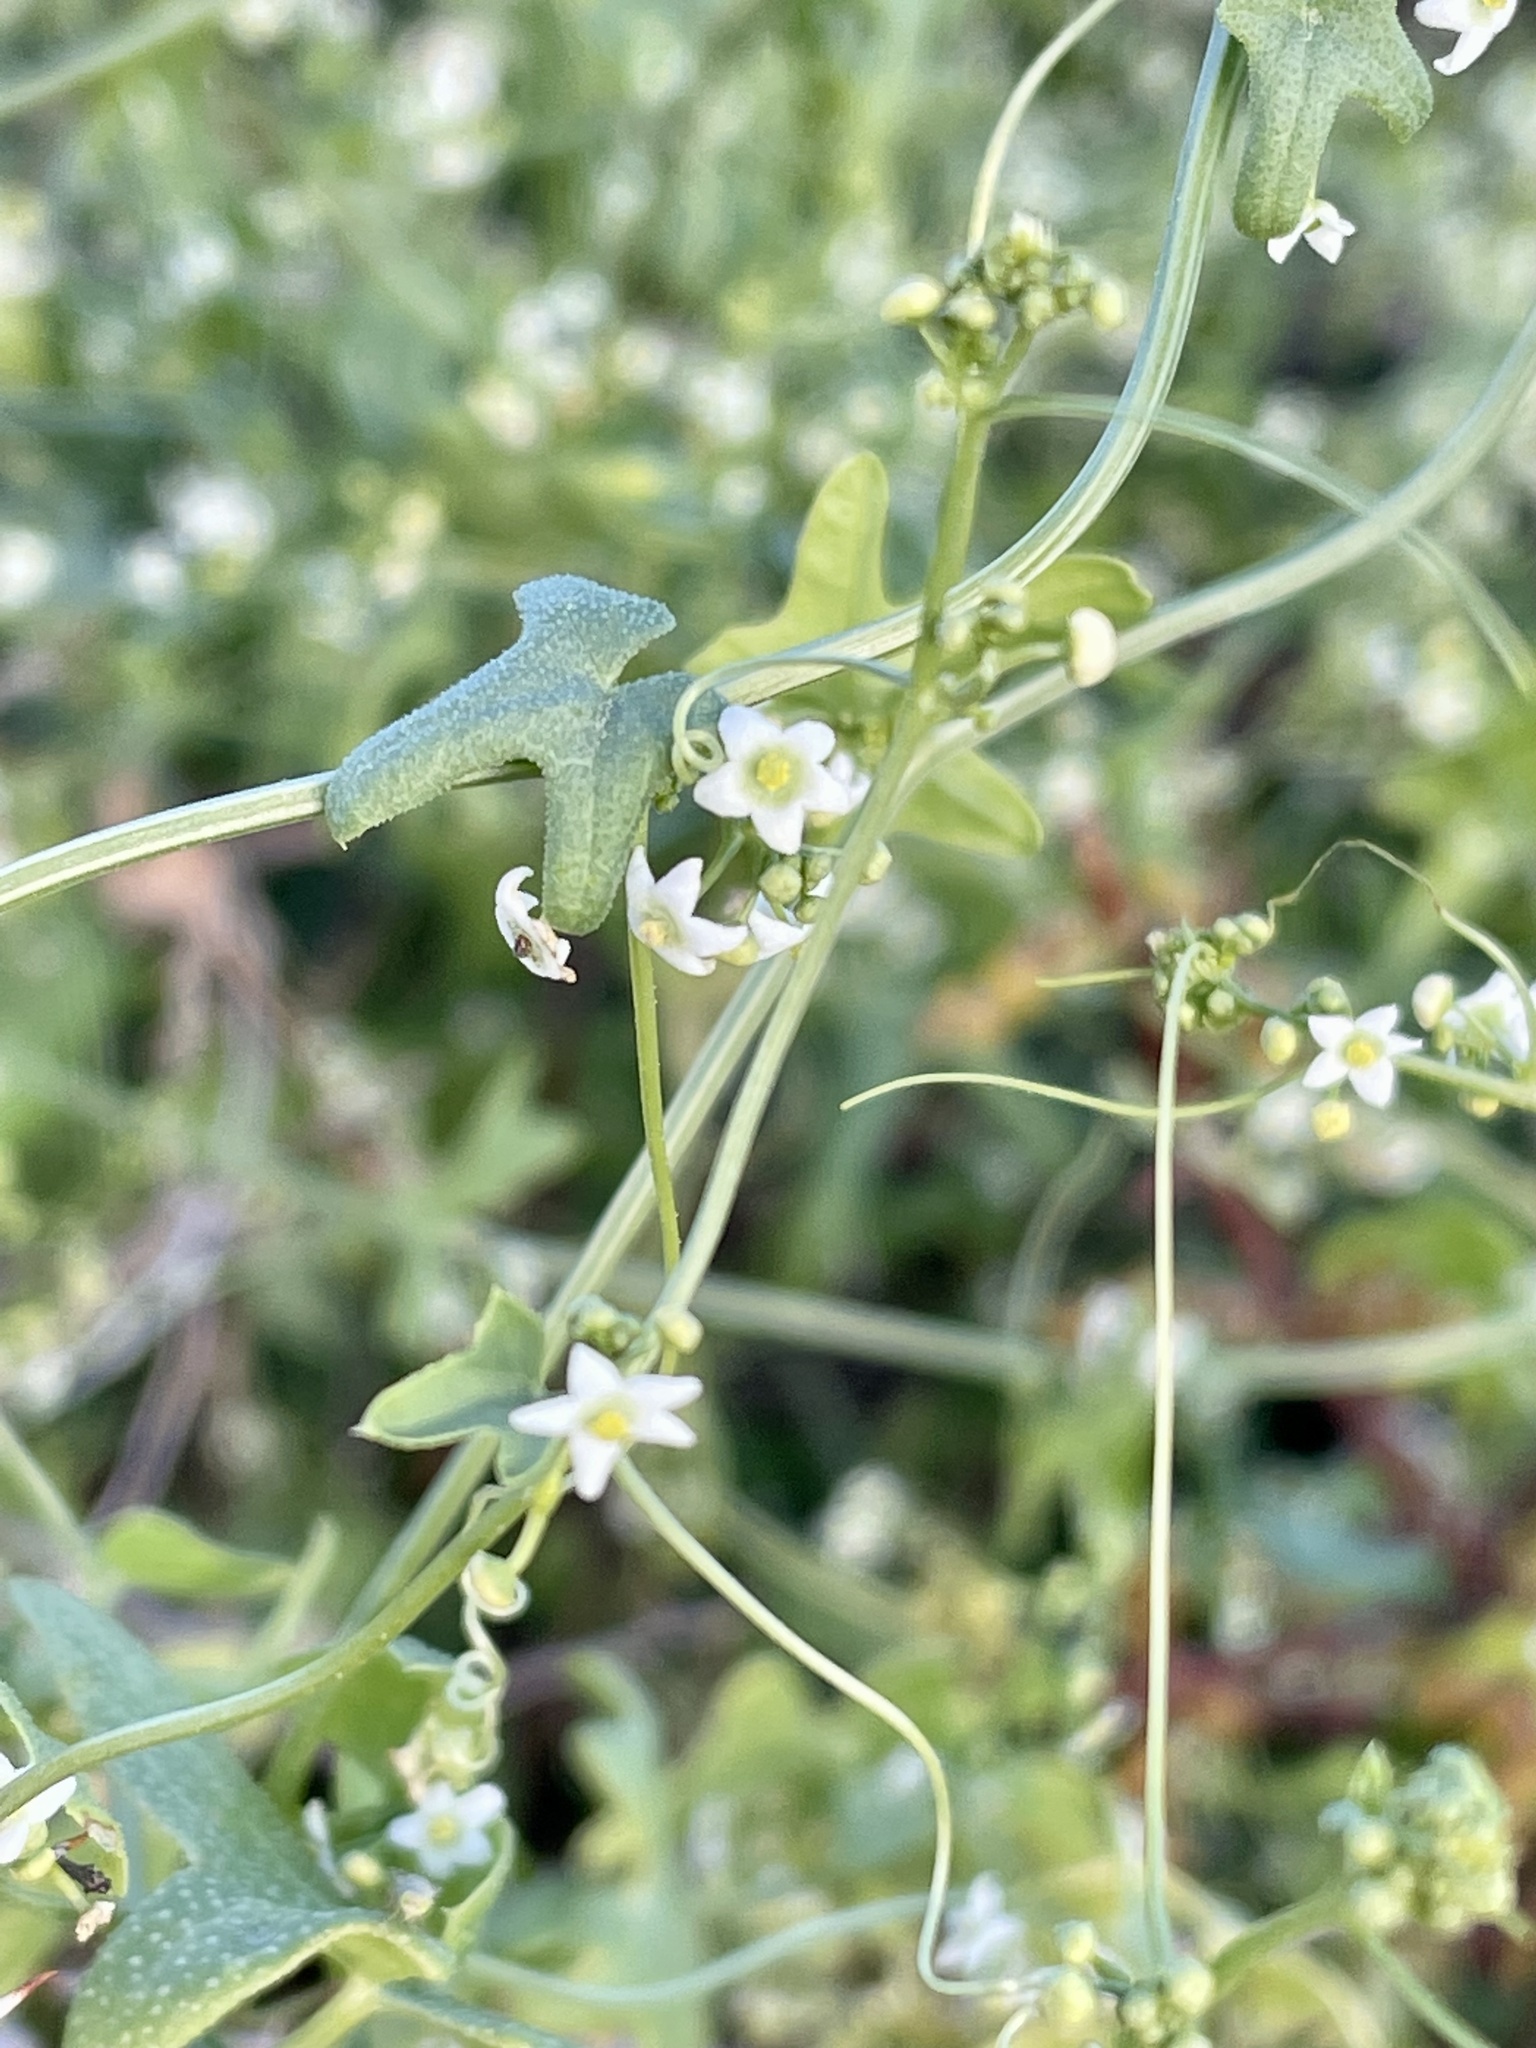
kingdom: Plantae
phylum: Tracheophyta
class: Magnoliopsida
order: Cucurbitales
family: Cucurbitaceae
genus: Echinopepon
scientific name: Echinopepon bigelovii
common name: Desert starvine
